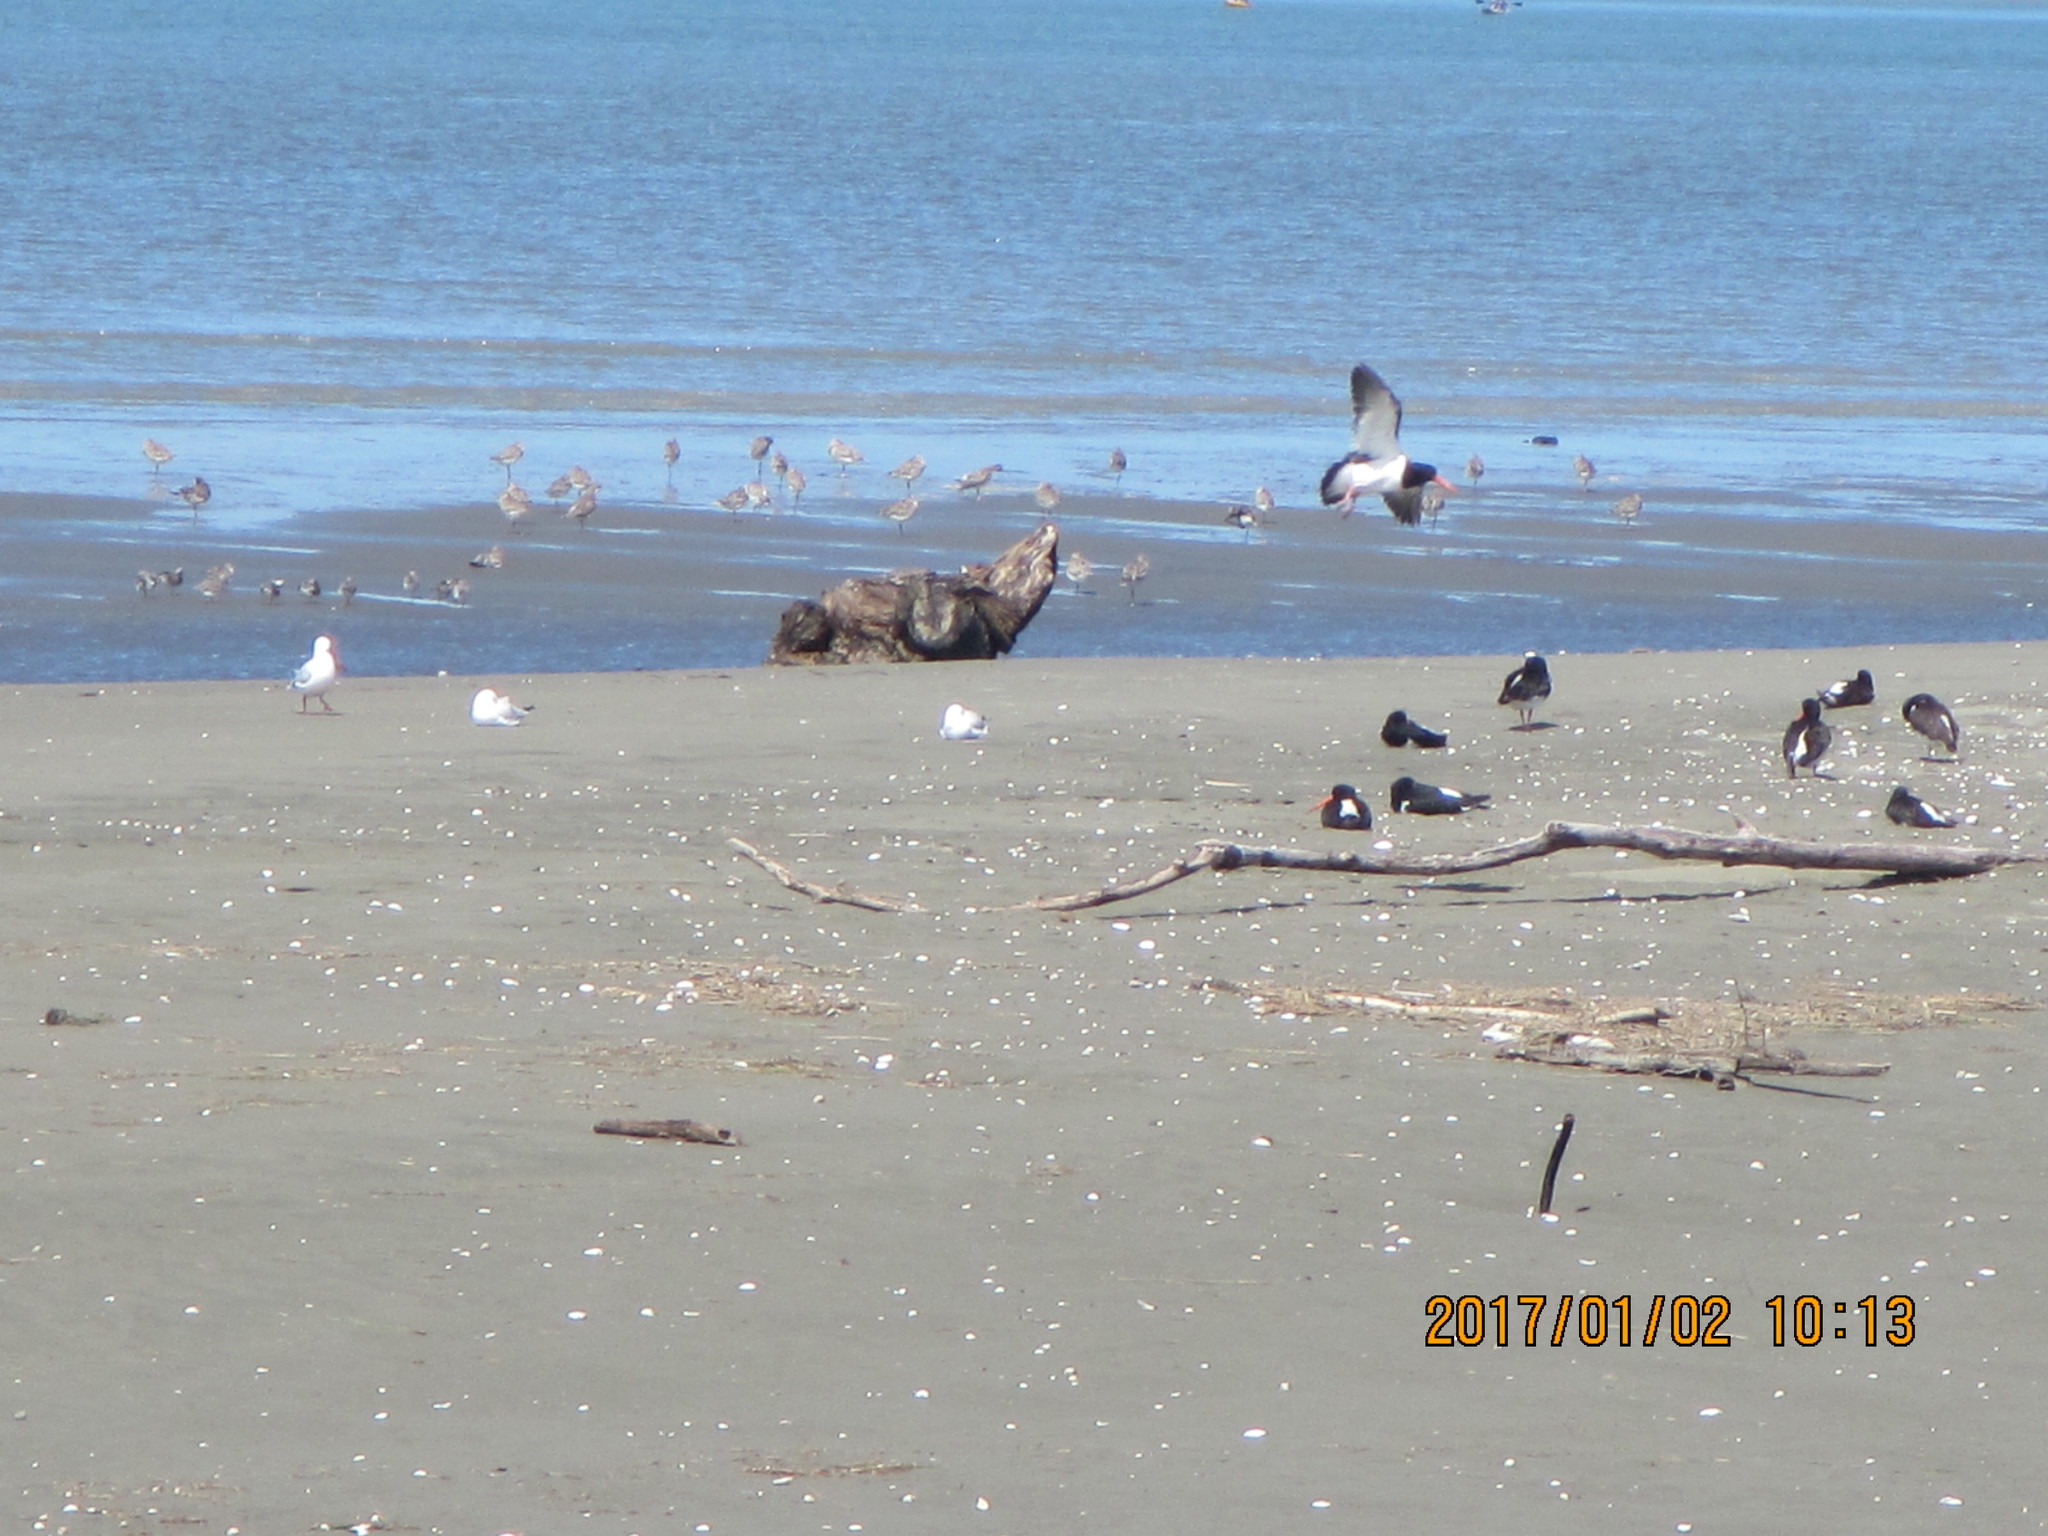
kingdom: Animalia
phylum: Chordata
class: Aves
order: Charadriiformes
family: Haematopodidae
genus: Haematopus
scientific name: Haematopus finschi
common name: South island oystercatcher
